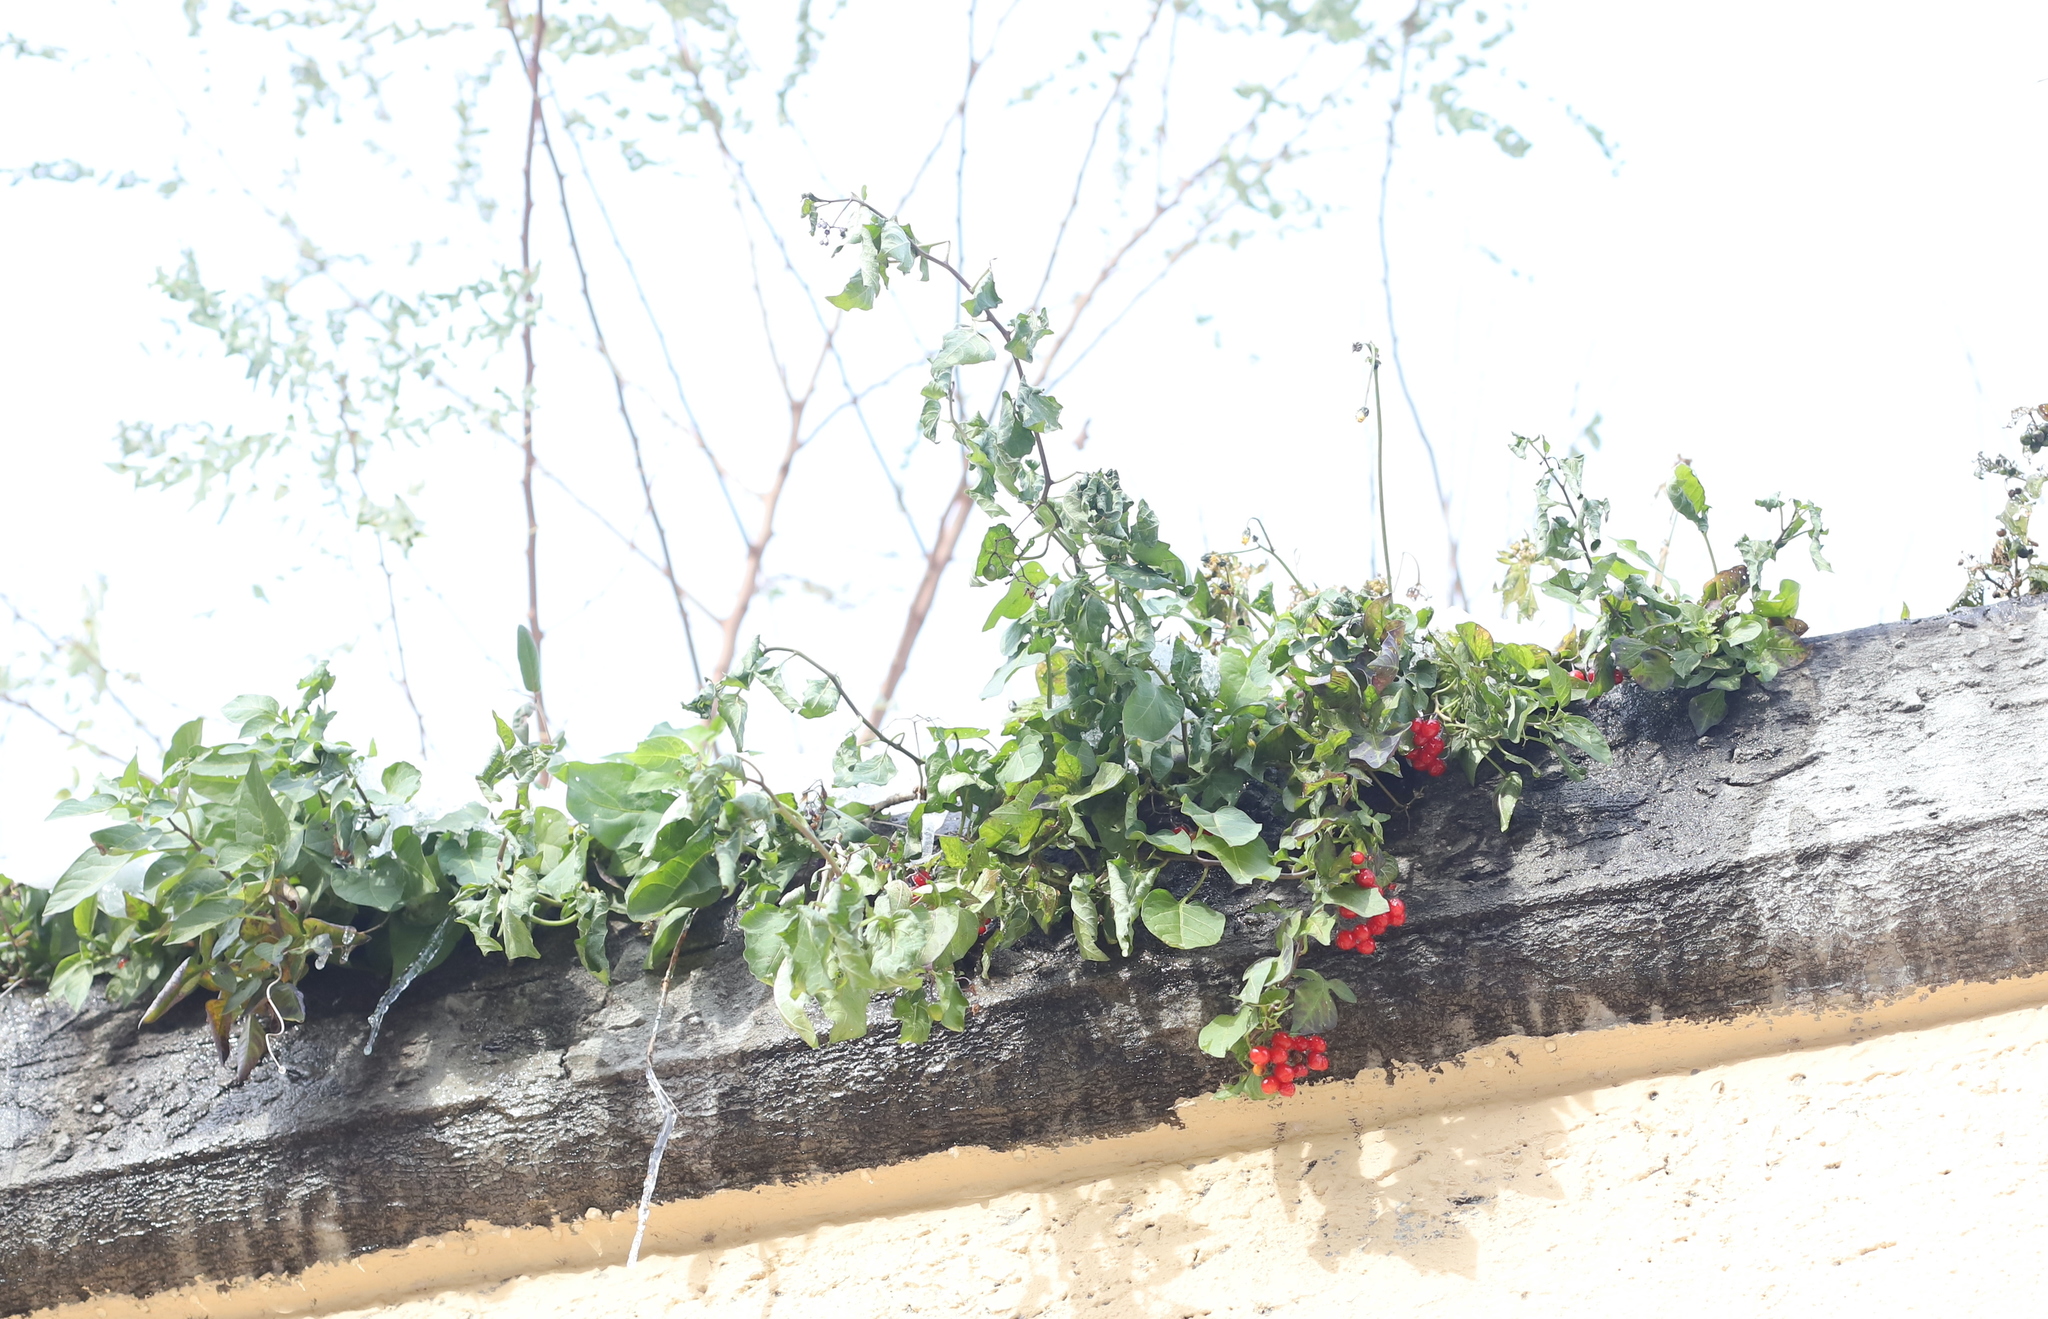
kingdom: Plantae
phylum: Tracheophyta
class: Magnoliopsida
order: Solanales
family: Solanaceae
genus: Solanum
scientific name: Solanum dulcamara
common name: Climbing nightshade
